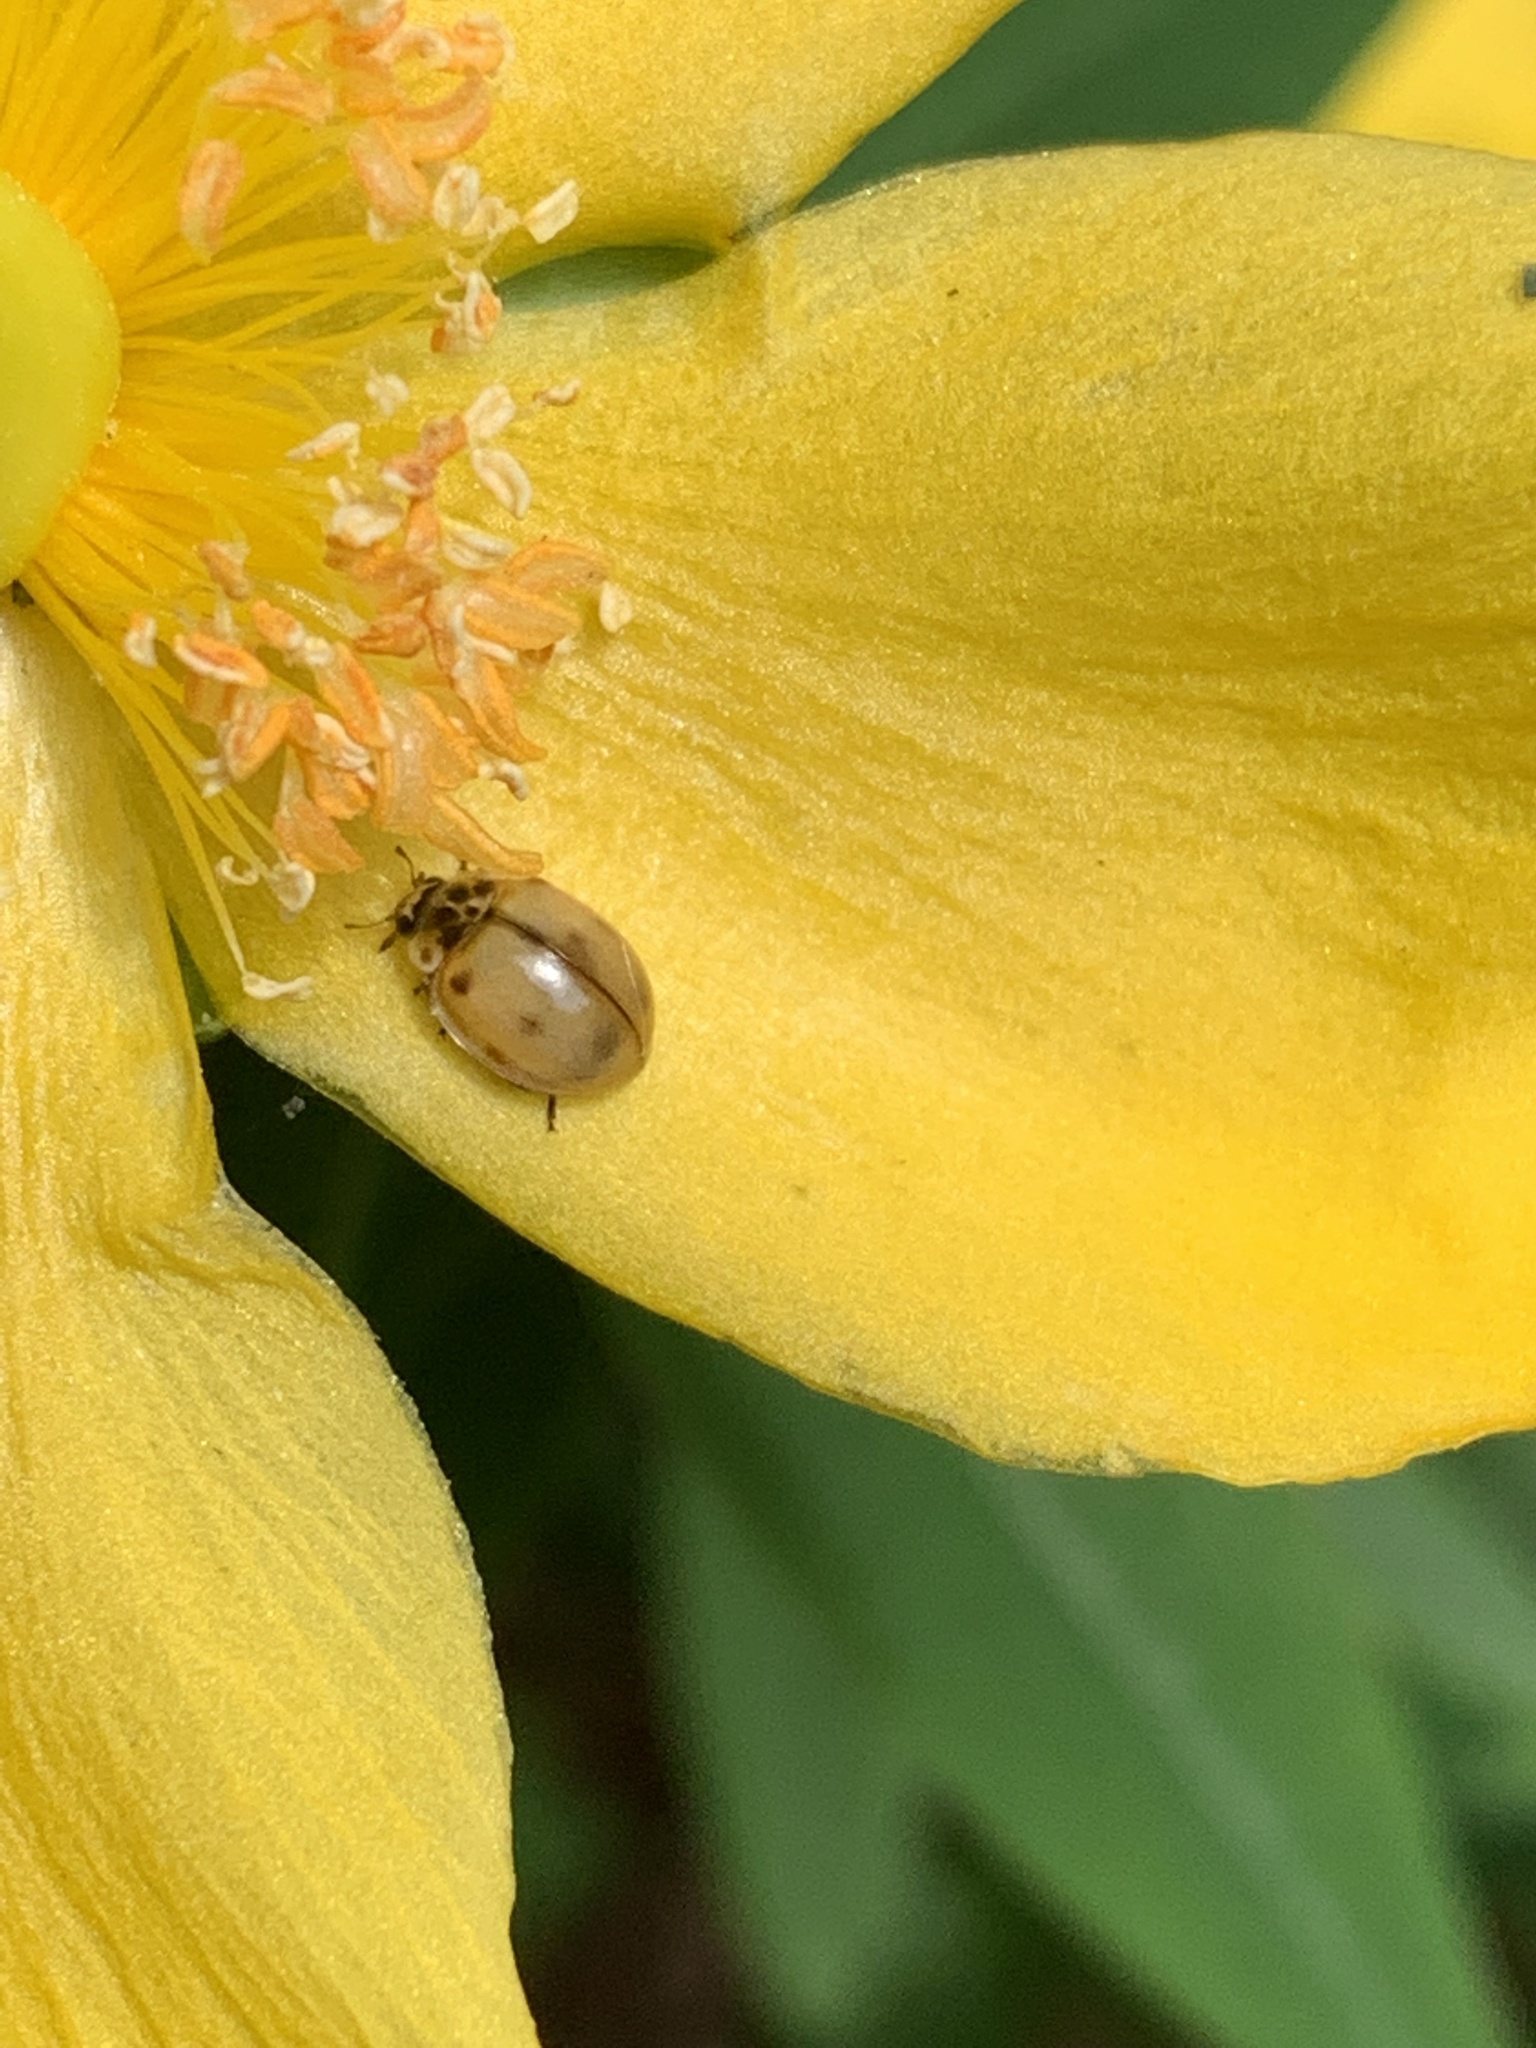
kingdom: Animalia
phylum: Arthropoda
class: Insecta
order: Coleoptera
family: Coccinellidae
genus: Adalia
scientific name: Adalia decempunctata
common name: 10-spot ladybird
